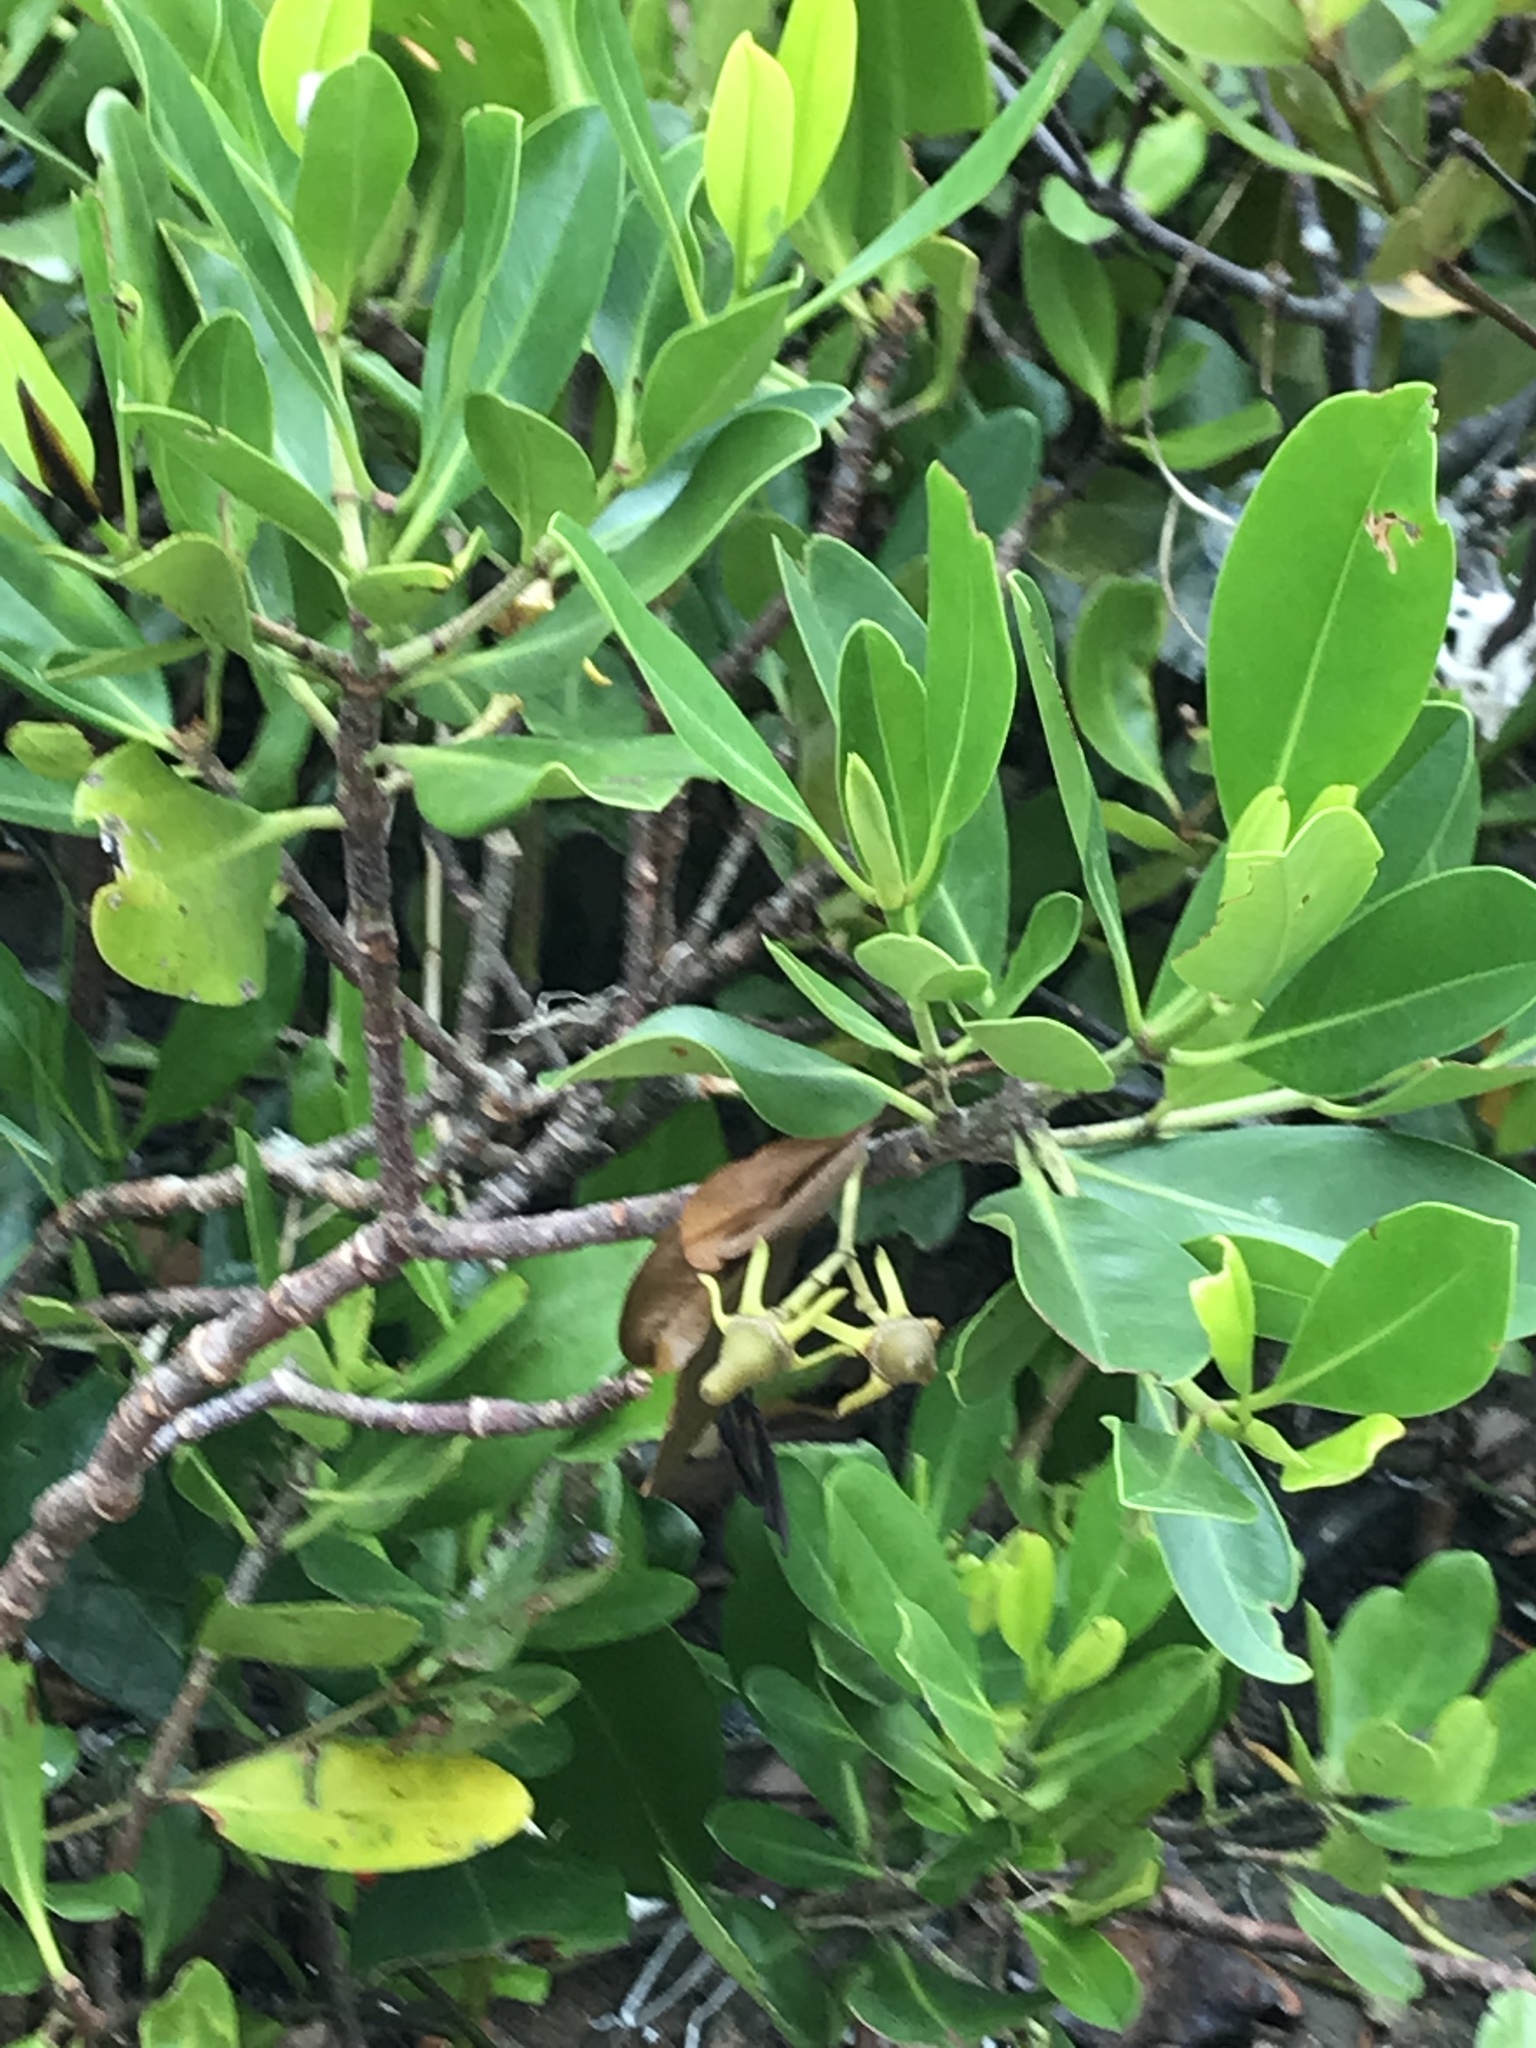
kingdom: Plantae
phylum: Tracheophyta
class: Magnoliopsida
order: Malpighiales
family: Rhizophoraceae
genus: Kandelia
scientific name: Kandelia obovata
